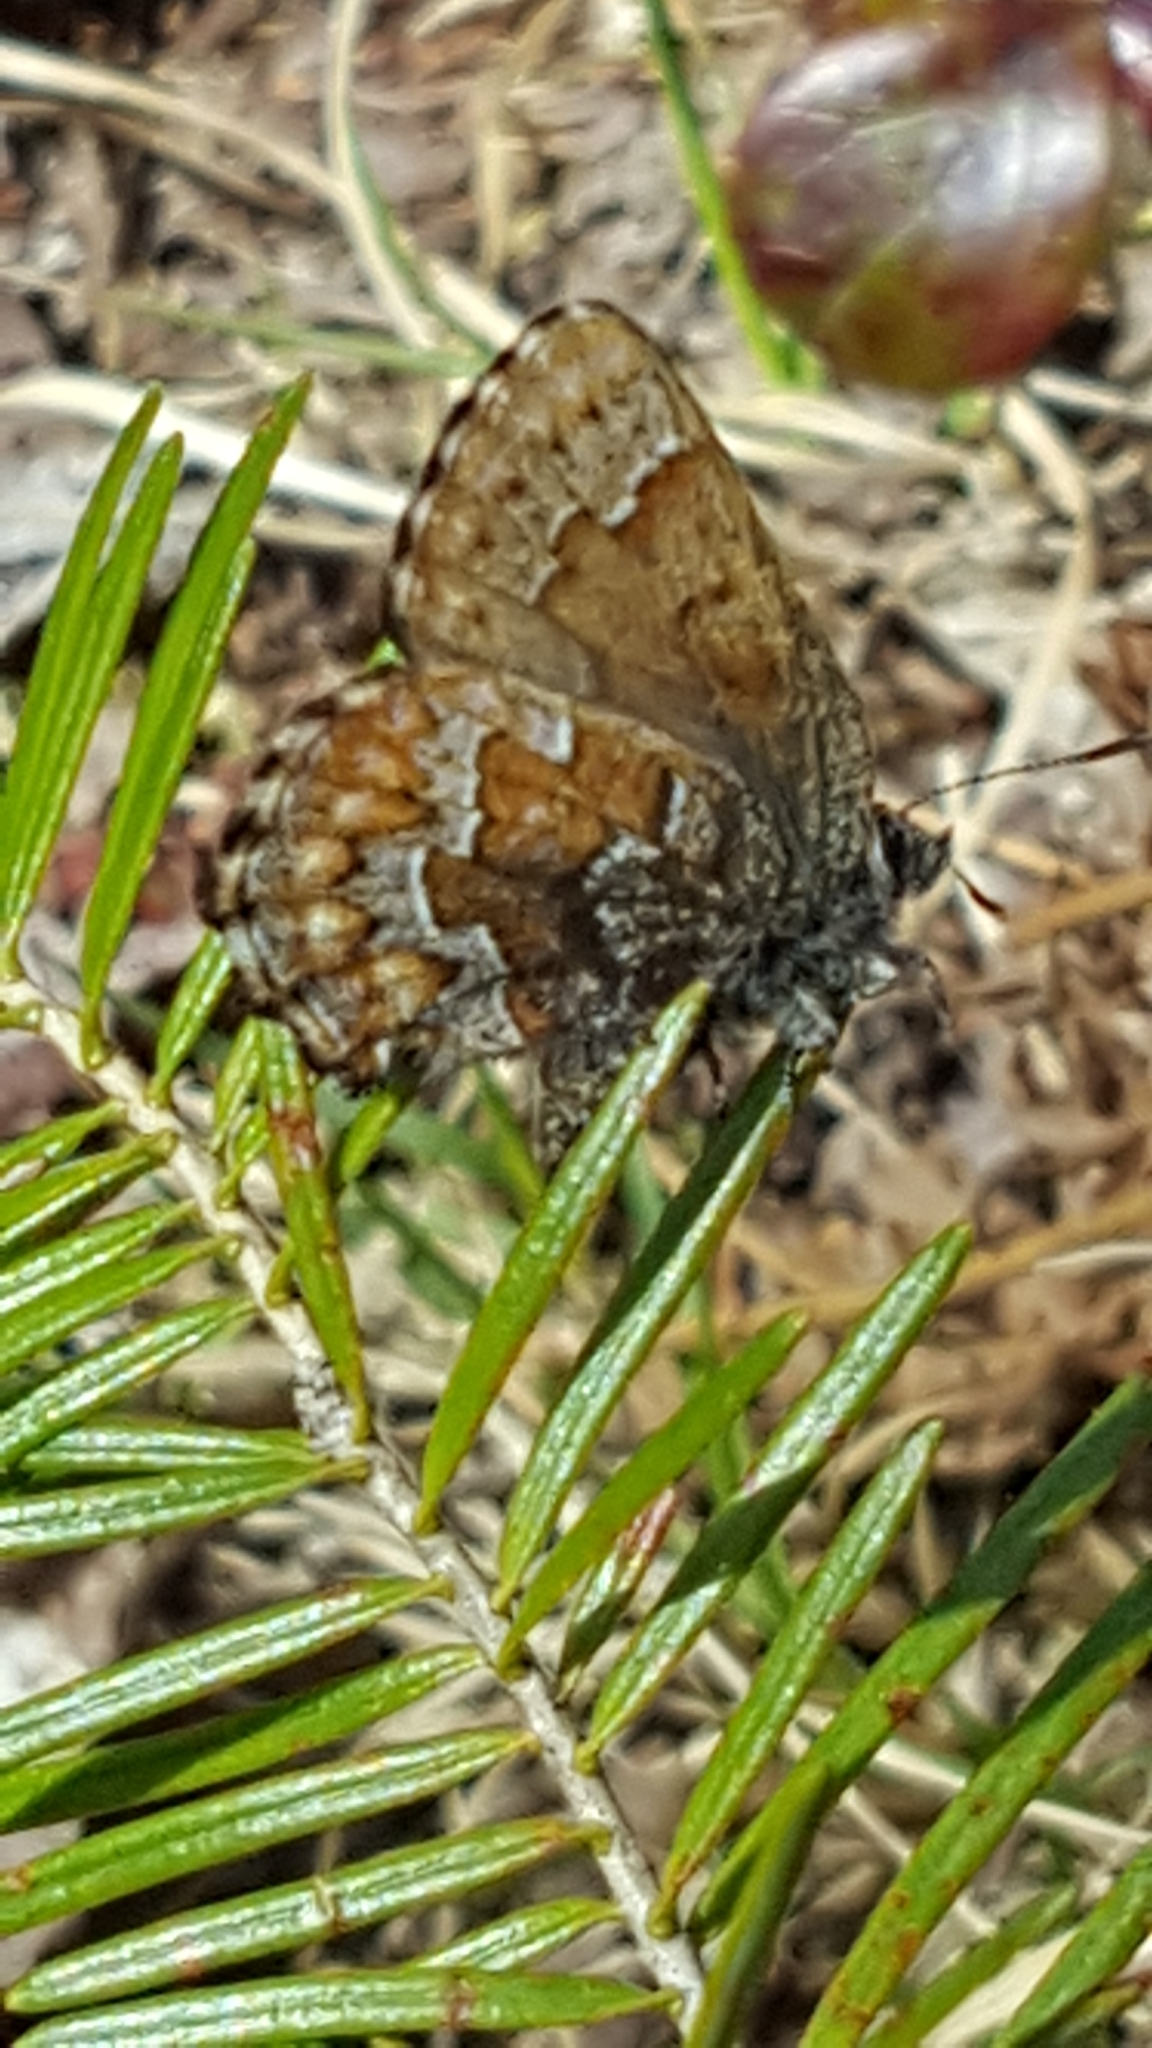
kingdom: Animalia
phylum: Arthropoda
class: Insecta
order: Lepidoptera
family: Lycaenidae
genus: Incisalia
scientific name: Incisalia niphon
